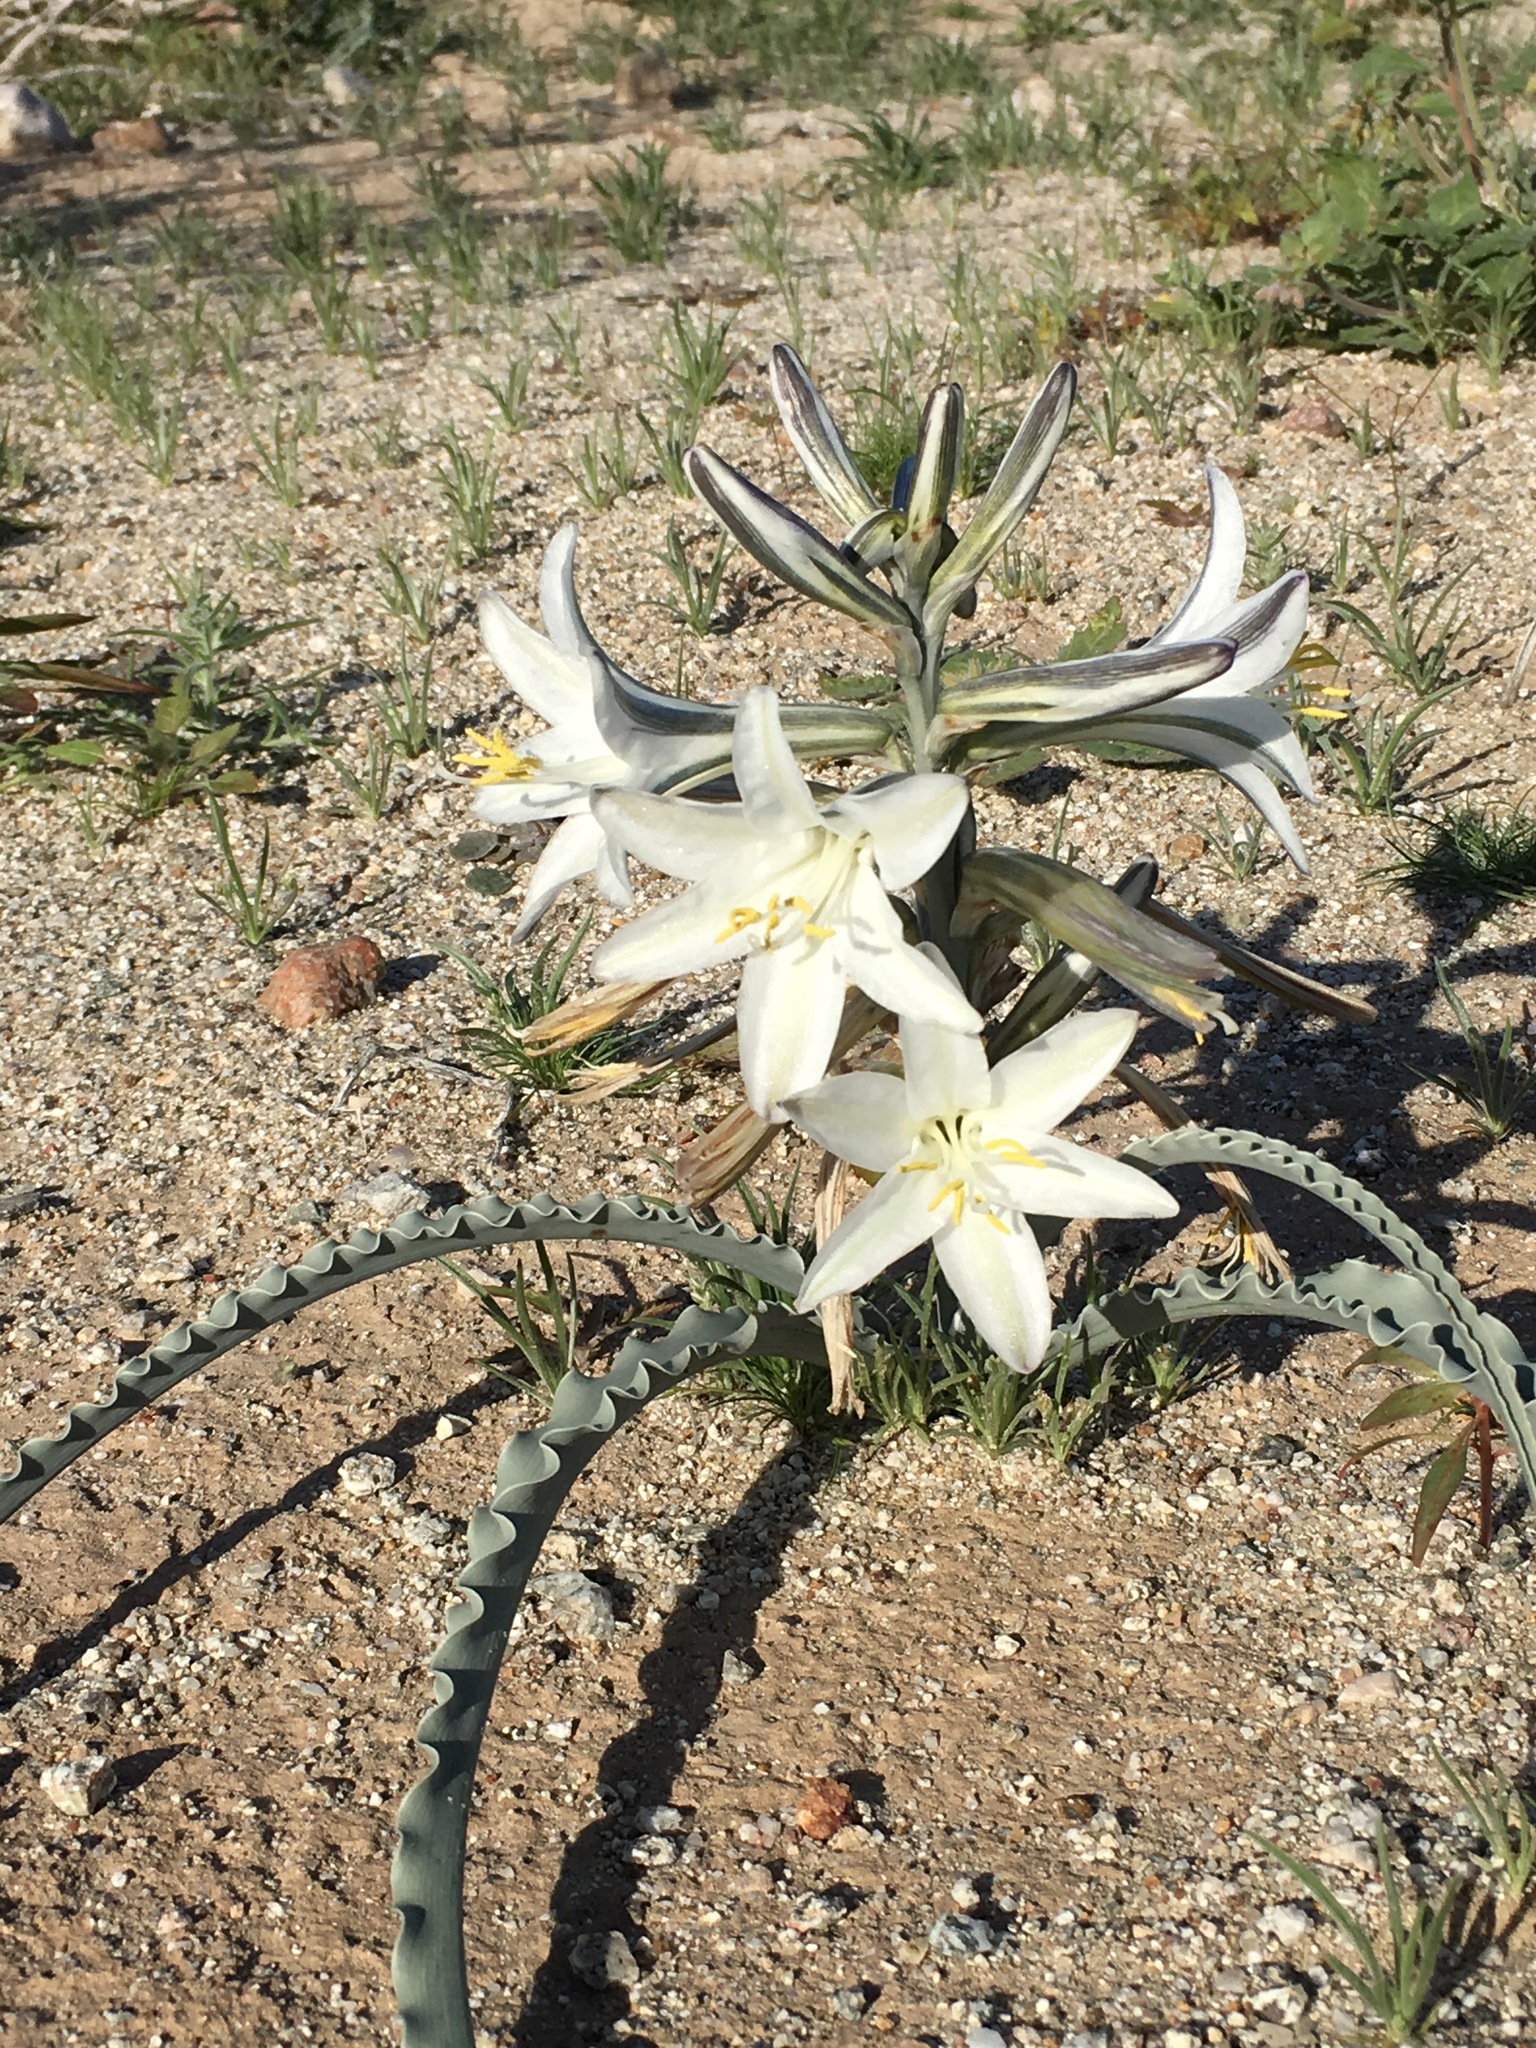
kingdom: Plantae
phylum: Tracheophyta
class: Liliopsida
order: Asparagales
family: Asparagaceae
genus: Hesperocallis
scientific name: Hesperocallis undulata
